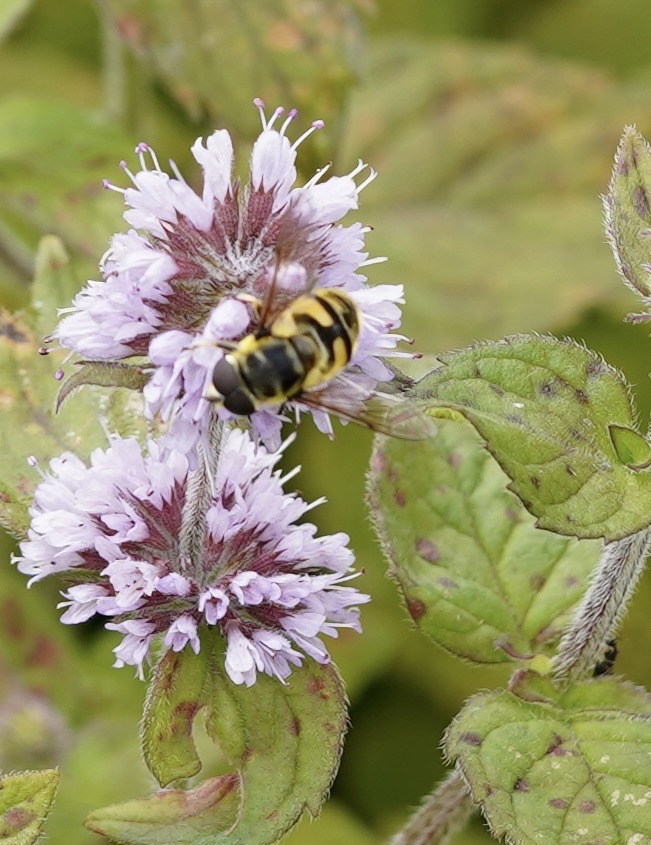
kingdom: Animalia
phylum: Arthropoda
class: Insecta
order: Diptera
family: Syrphidae
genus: Myathropa
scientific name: Myathropa florea
